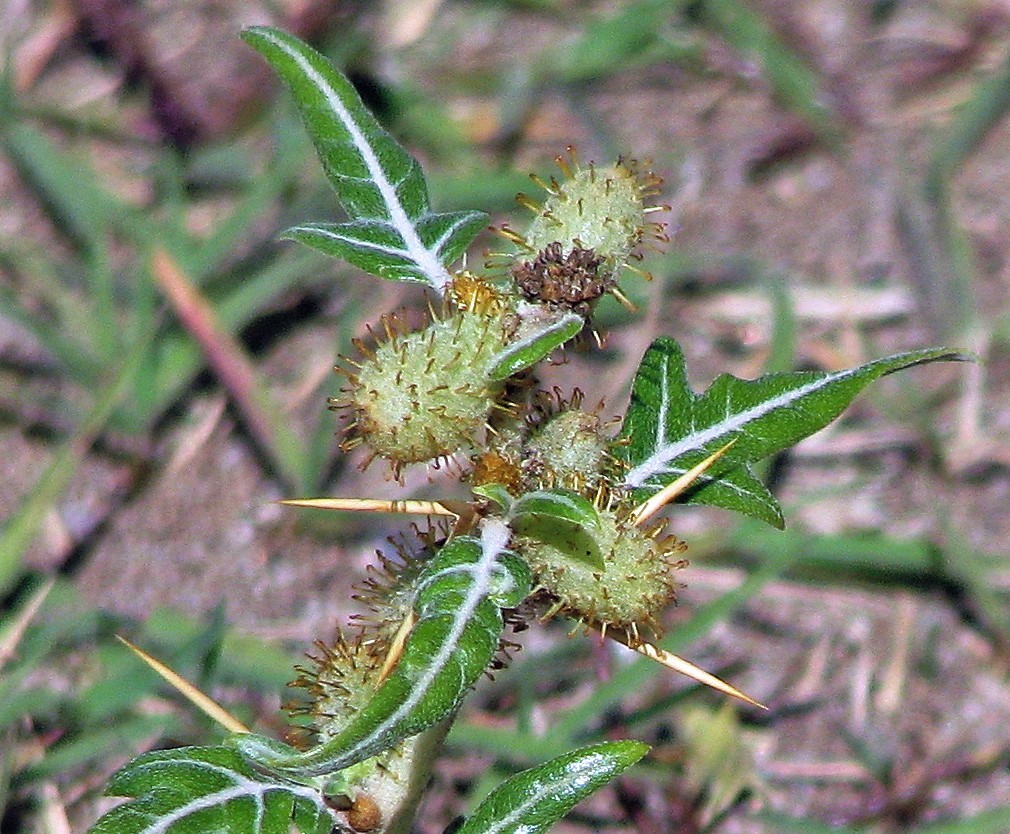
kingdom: Plantae
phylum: Tracheophyta
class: Magnoliopsida
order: Asterales
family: Asteraceae
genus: Xanthium
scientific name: Xanthium spinosum
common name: Spiny cocklebur
